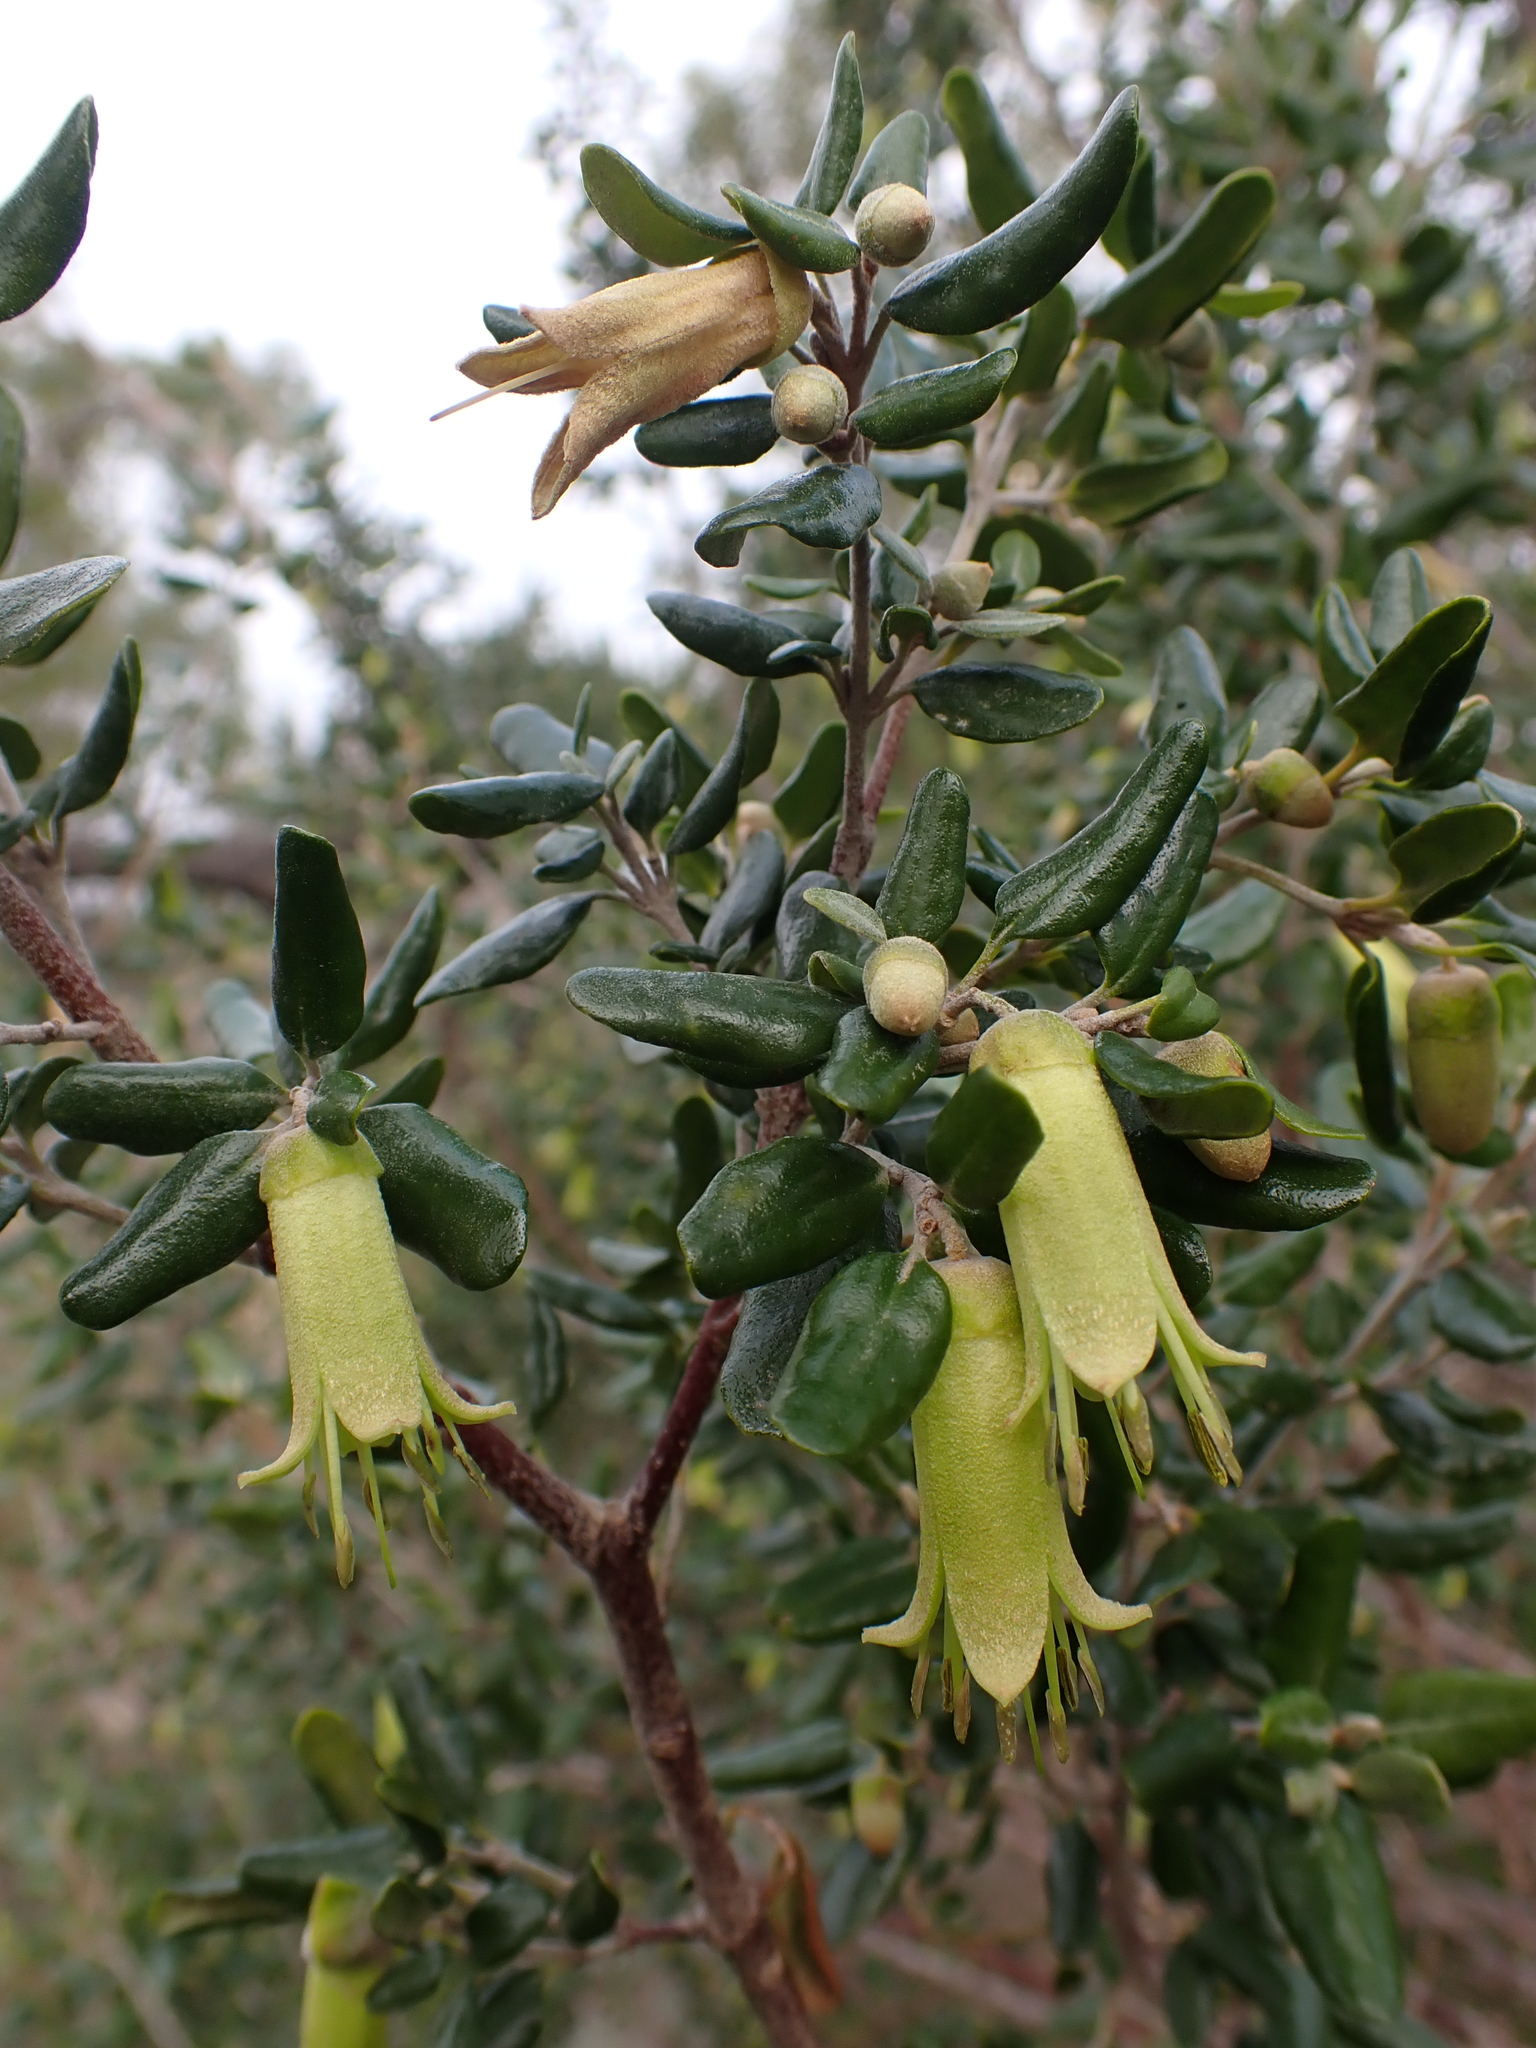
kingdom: Plantae
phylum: Tracheophyta
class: Magnoliopsida
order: Sapindales
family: Rutaceae
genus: Correa
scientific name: Correa glabra
